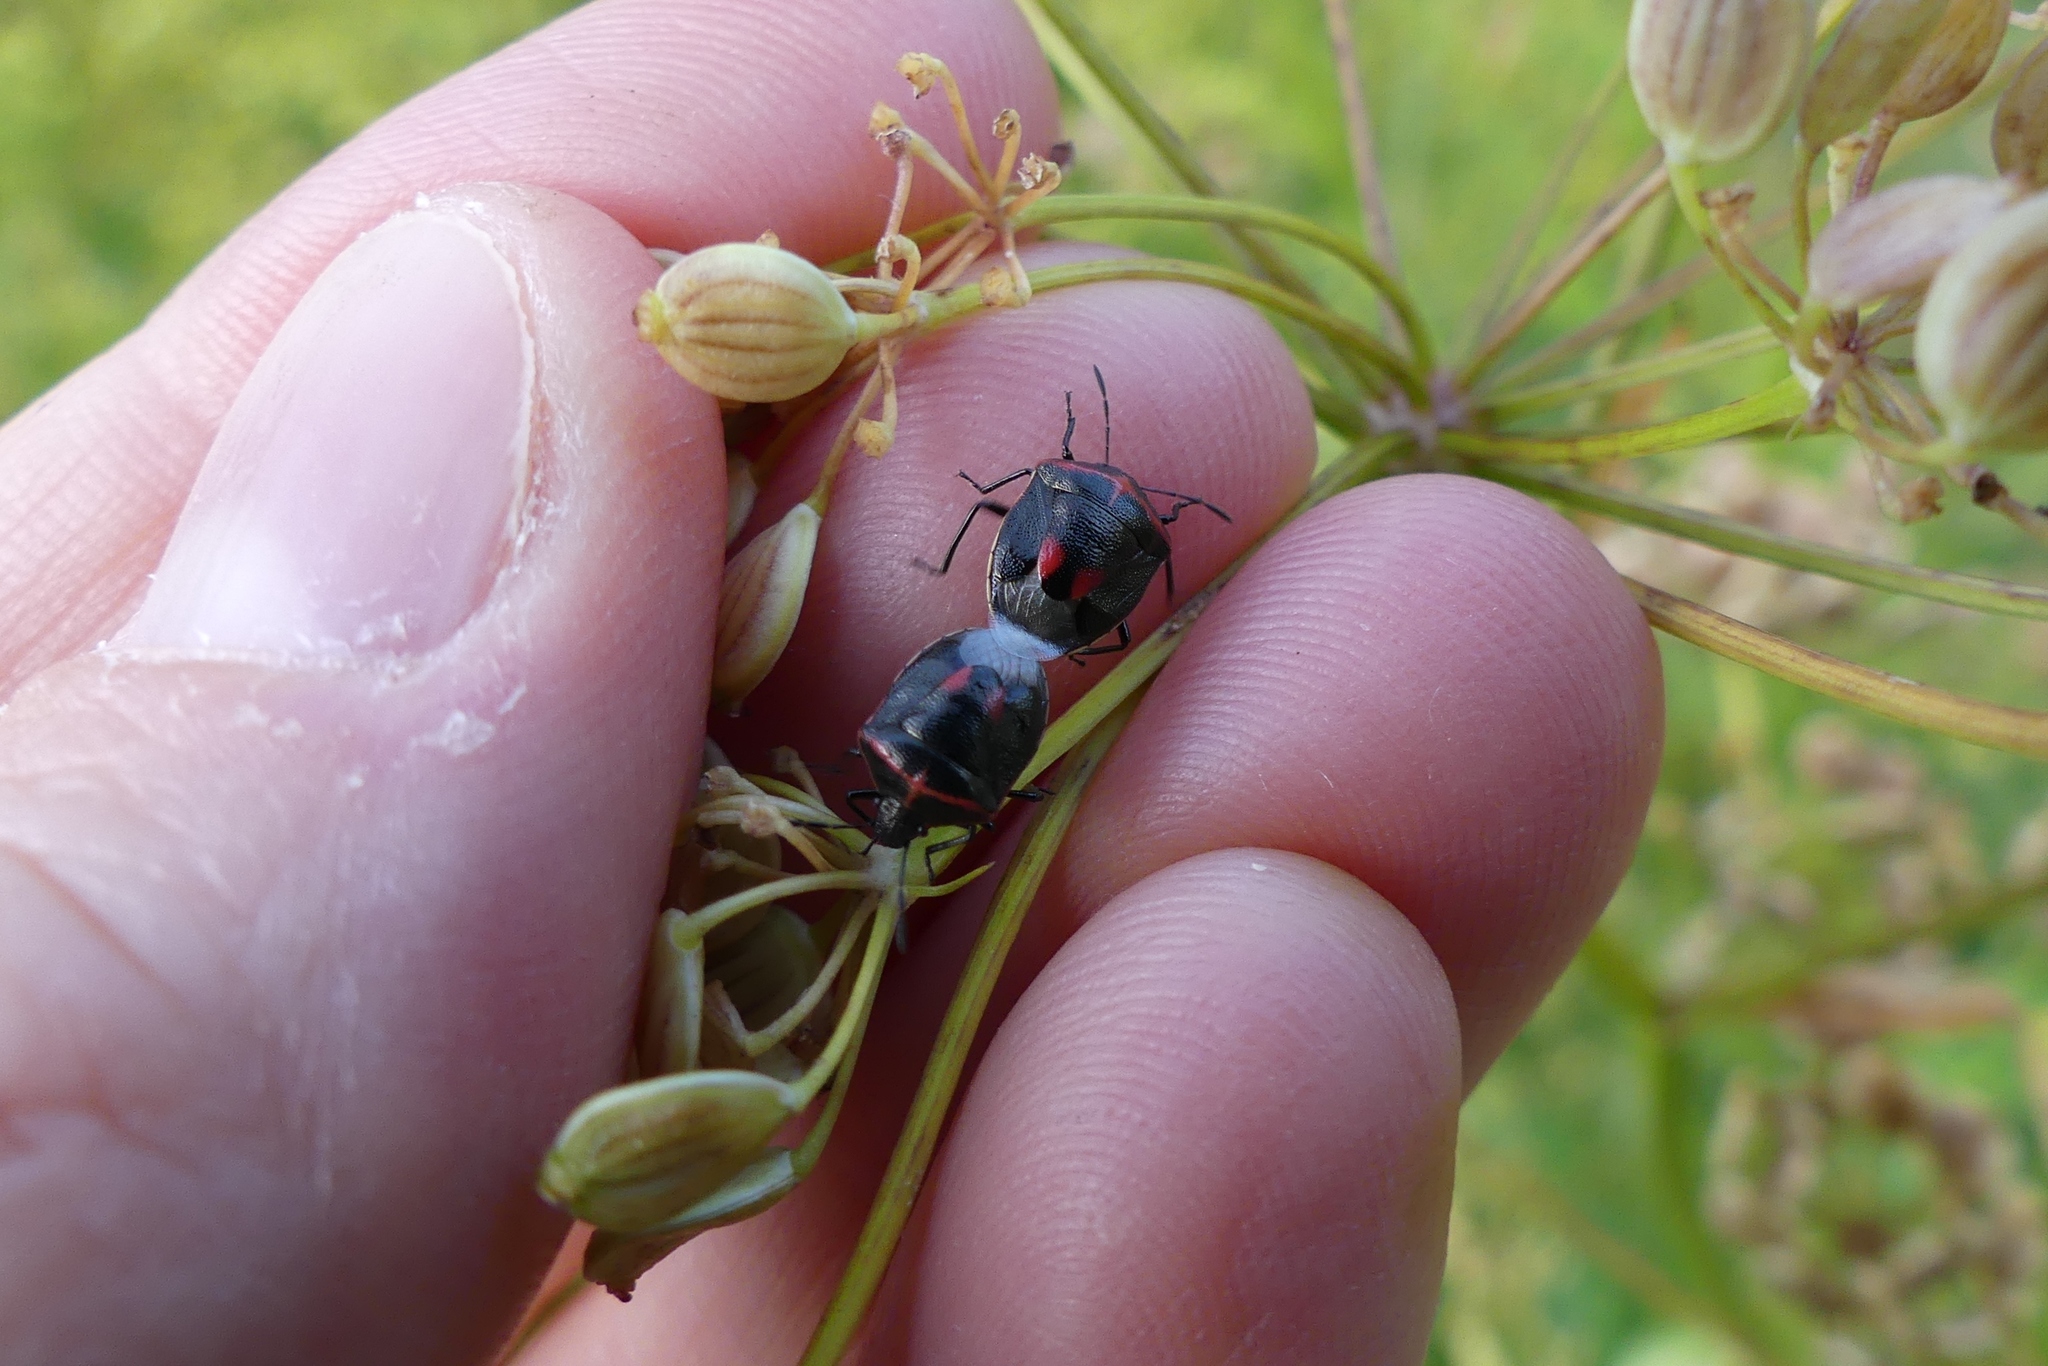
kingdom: Animalia
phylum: Arthropoda
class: Insecta
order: Hemiptera
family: Pentatomidae
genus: Cosmopepla
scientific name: Cosmopepla lintneriana
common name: Twice-stabbed stink bug
